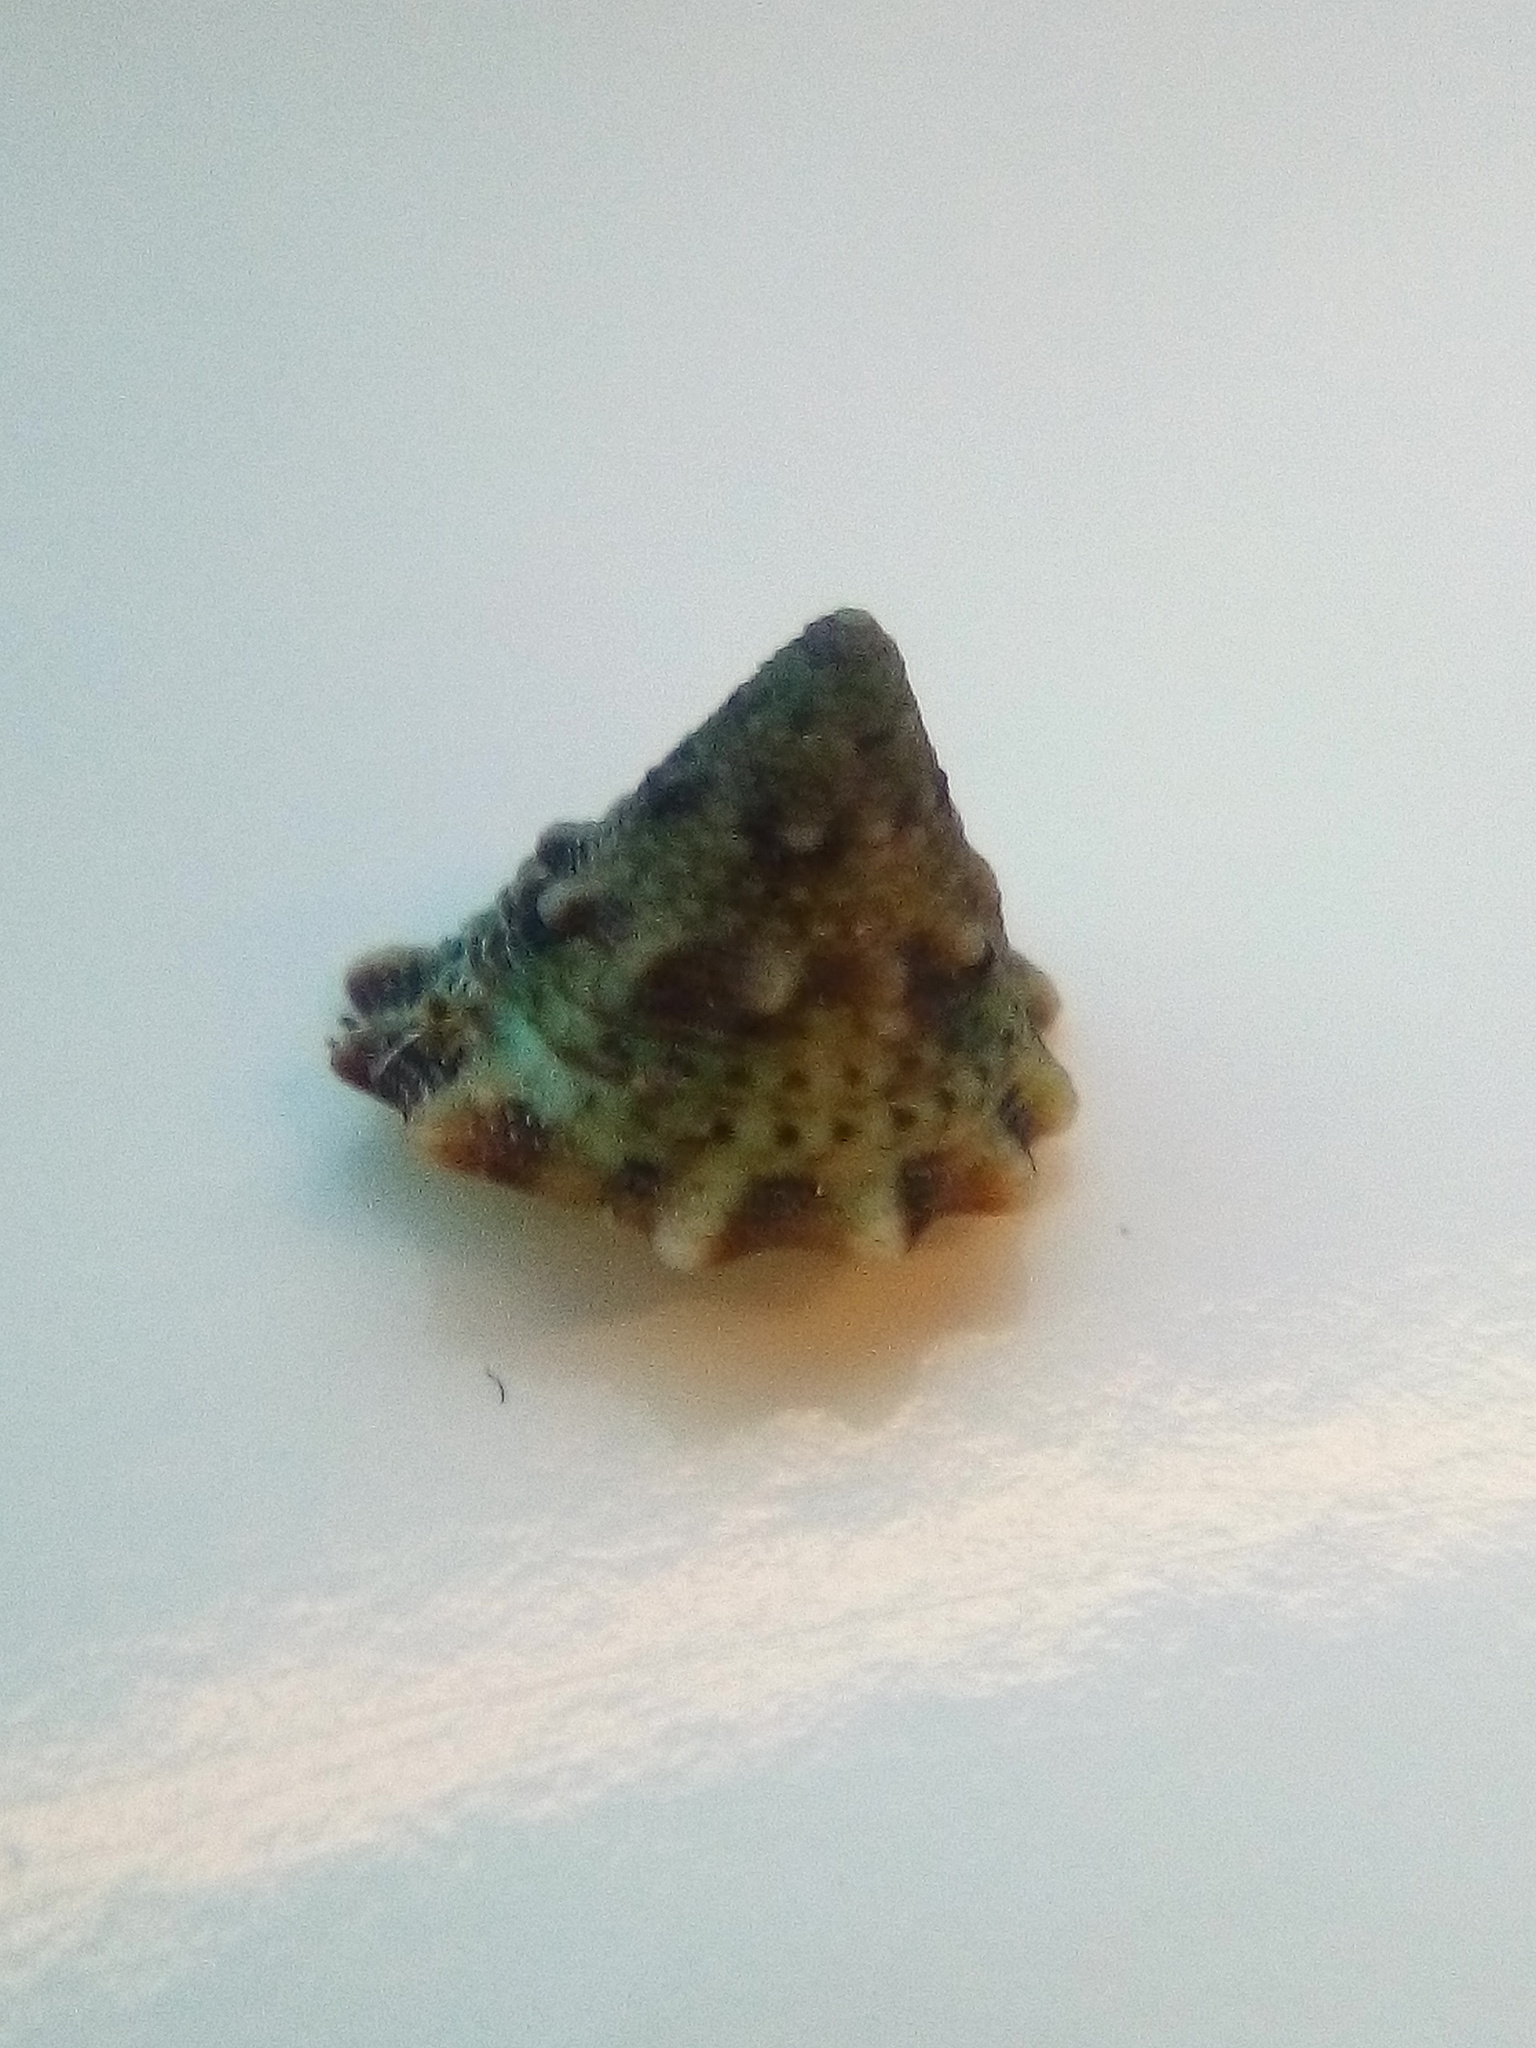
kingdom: Animalia
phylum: Mollusca
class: Gastropoda
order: Trochida
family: Trochidae
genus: Coelotrochus
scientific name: Coelotrochus viridis
